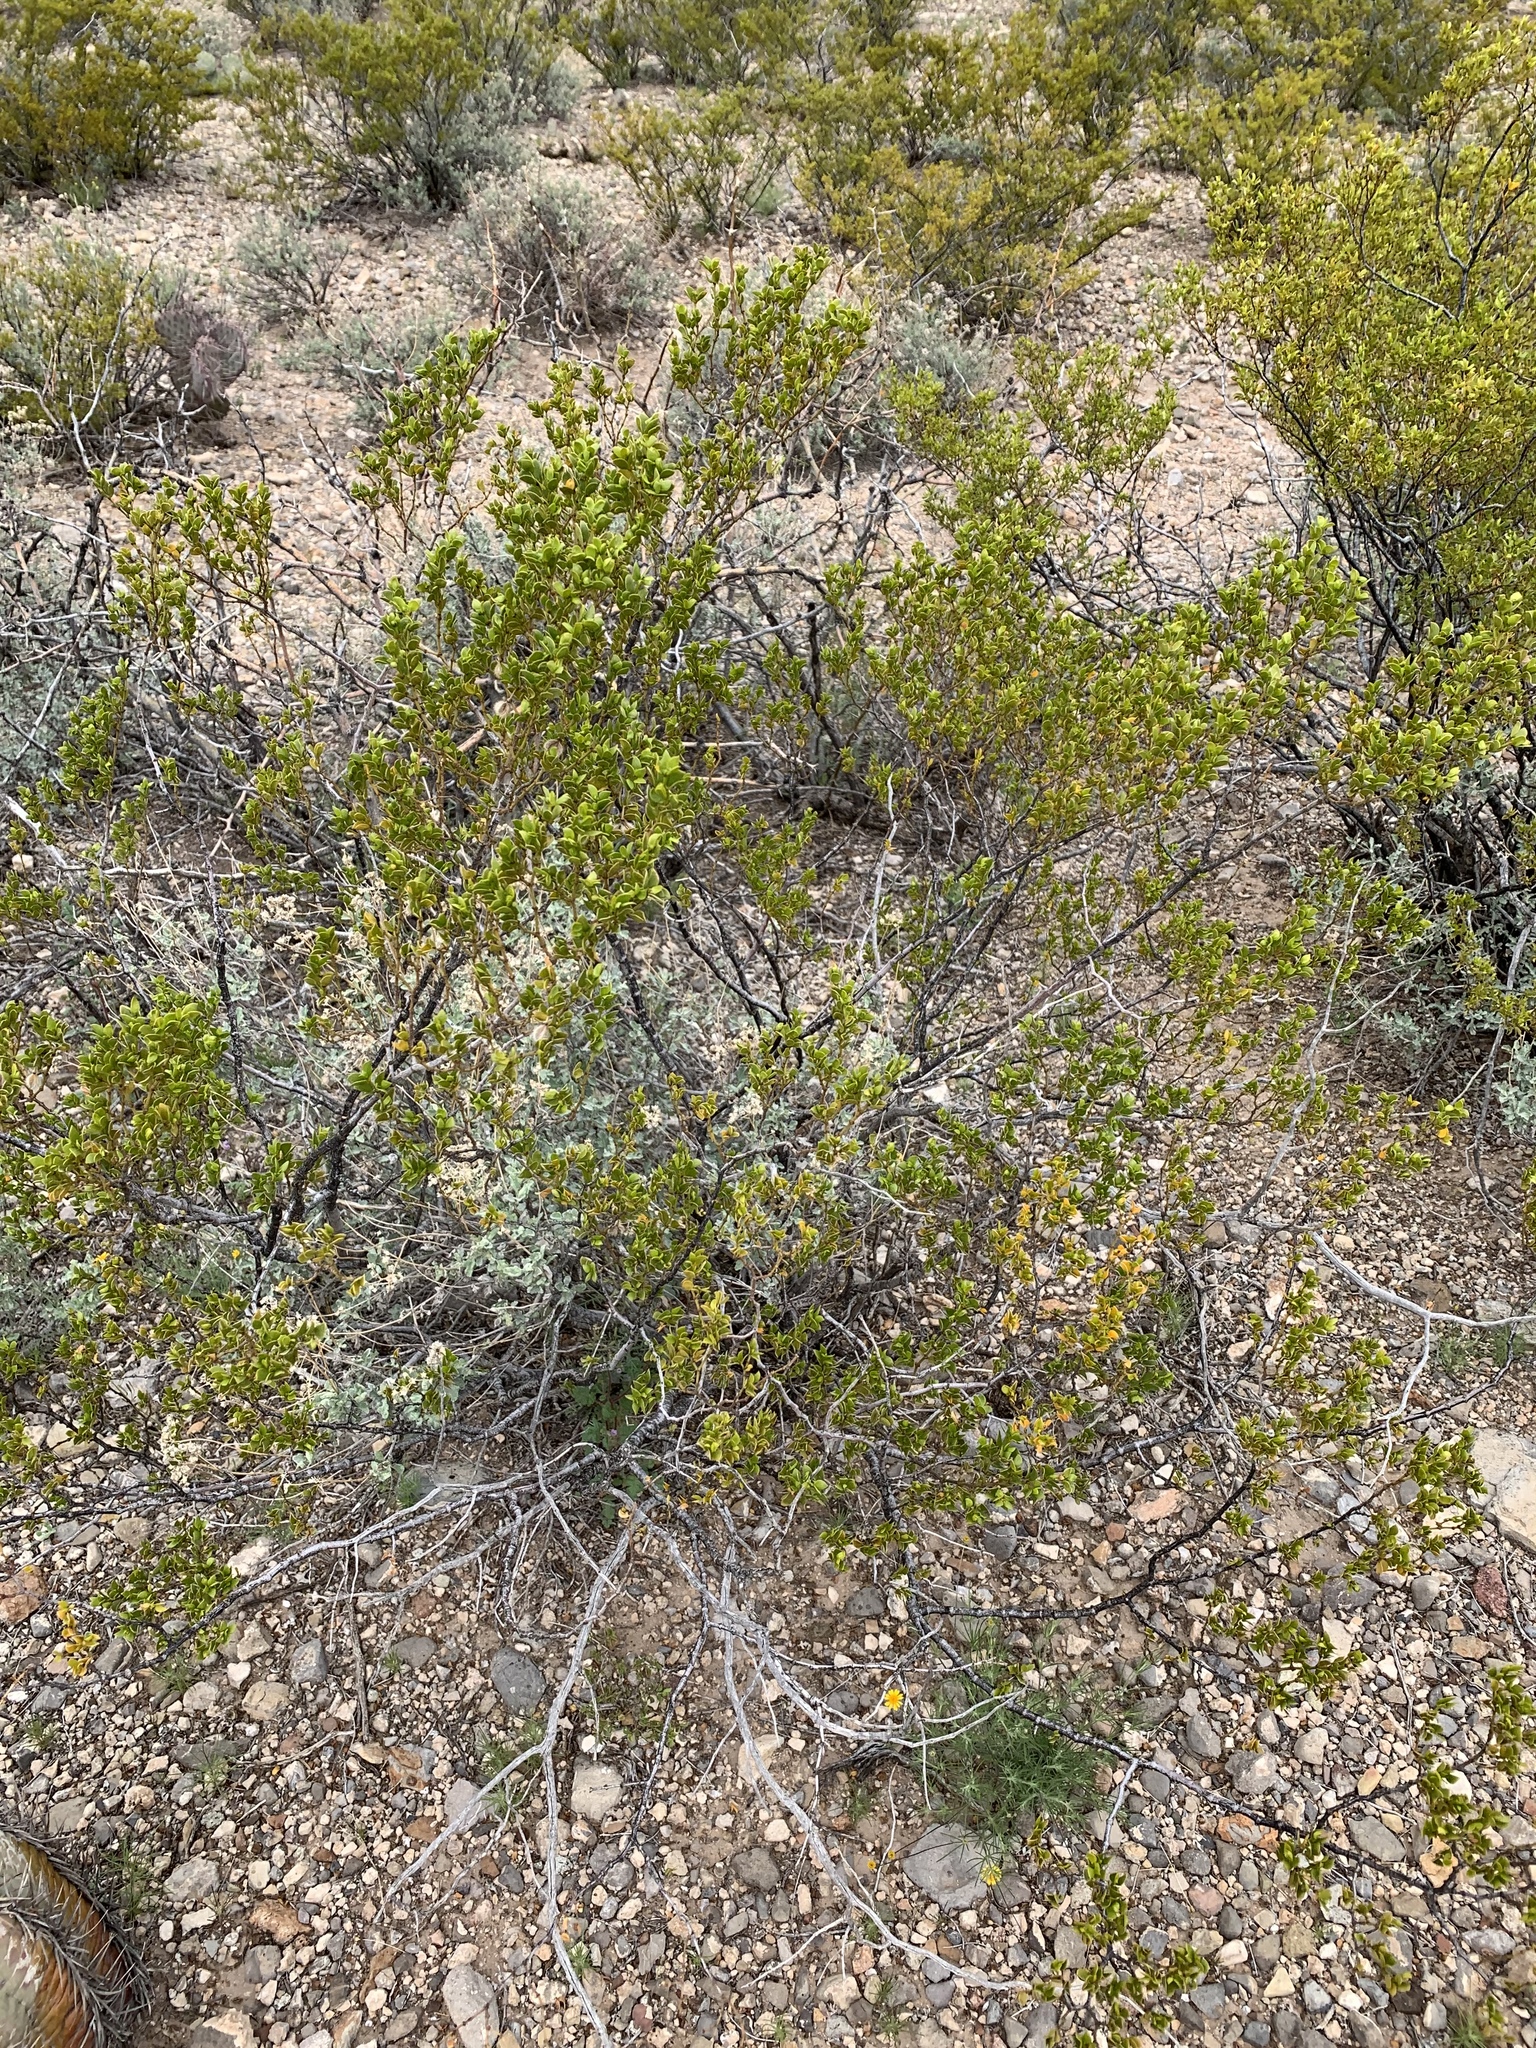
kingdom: Plantae
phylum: Tracheophyta
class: Magnoliopsida
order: Zygophyllales
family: Zygophyllaceae
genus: Larrea
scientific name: Larrea tridentata
